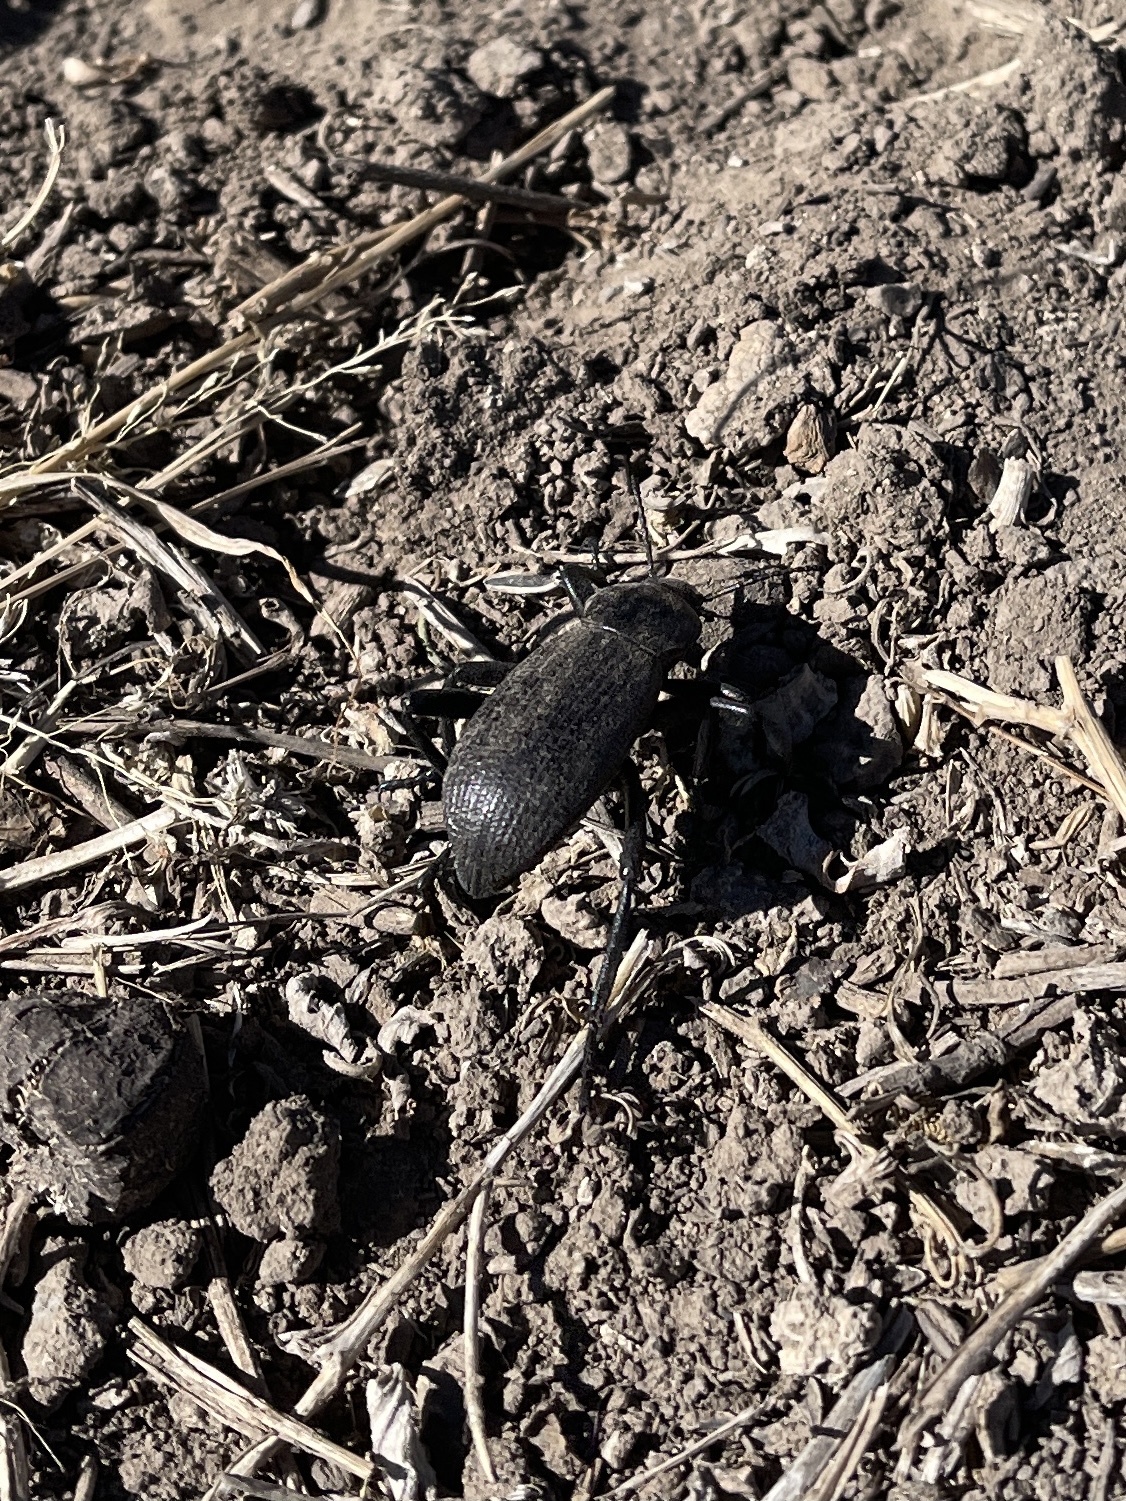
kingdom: Animalia
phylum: Arthropoda
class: Insecta
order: Coleoptera
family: Tenebrionidae
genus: Eleodes
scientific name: Eleodes obscura
